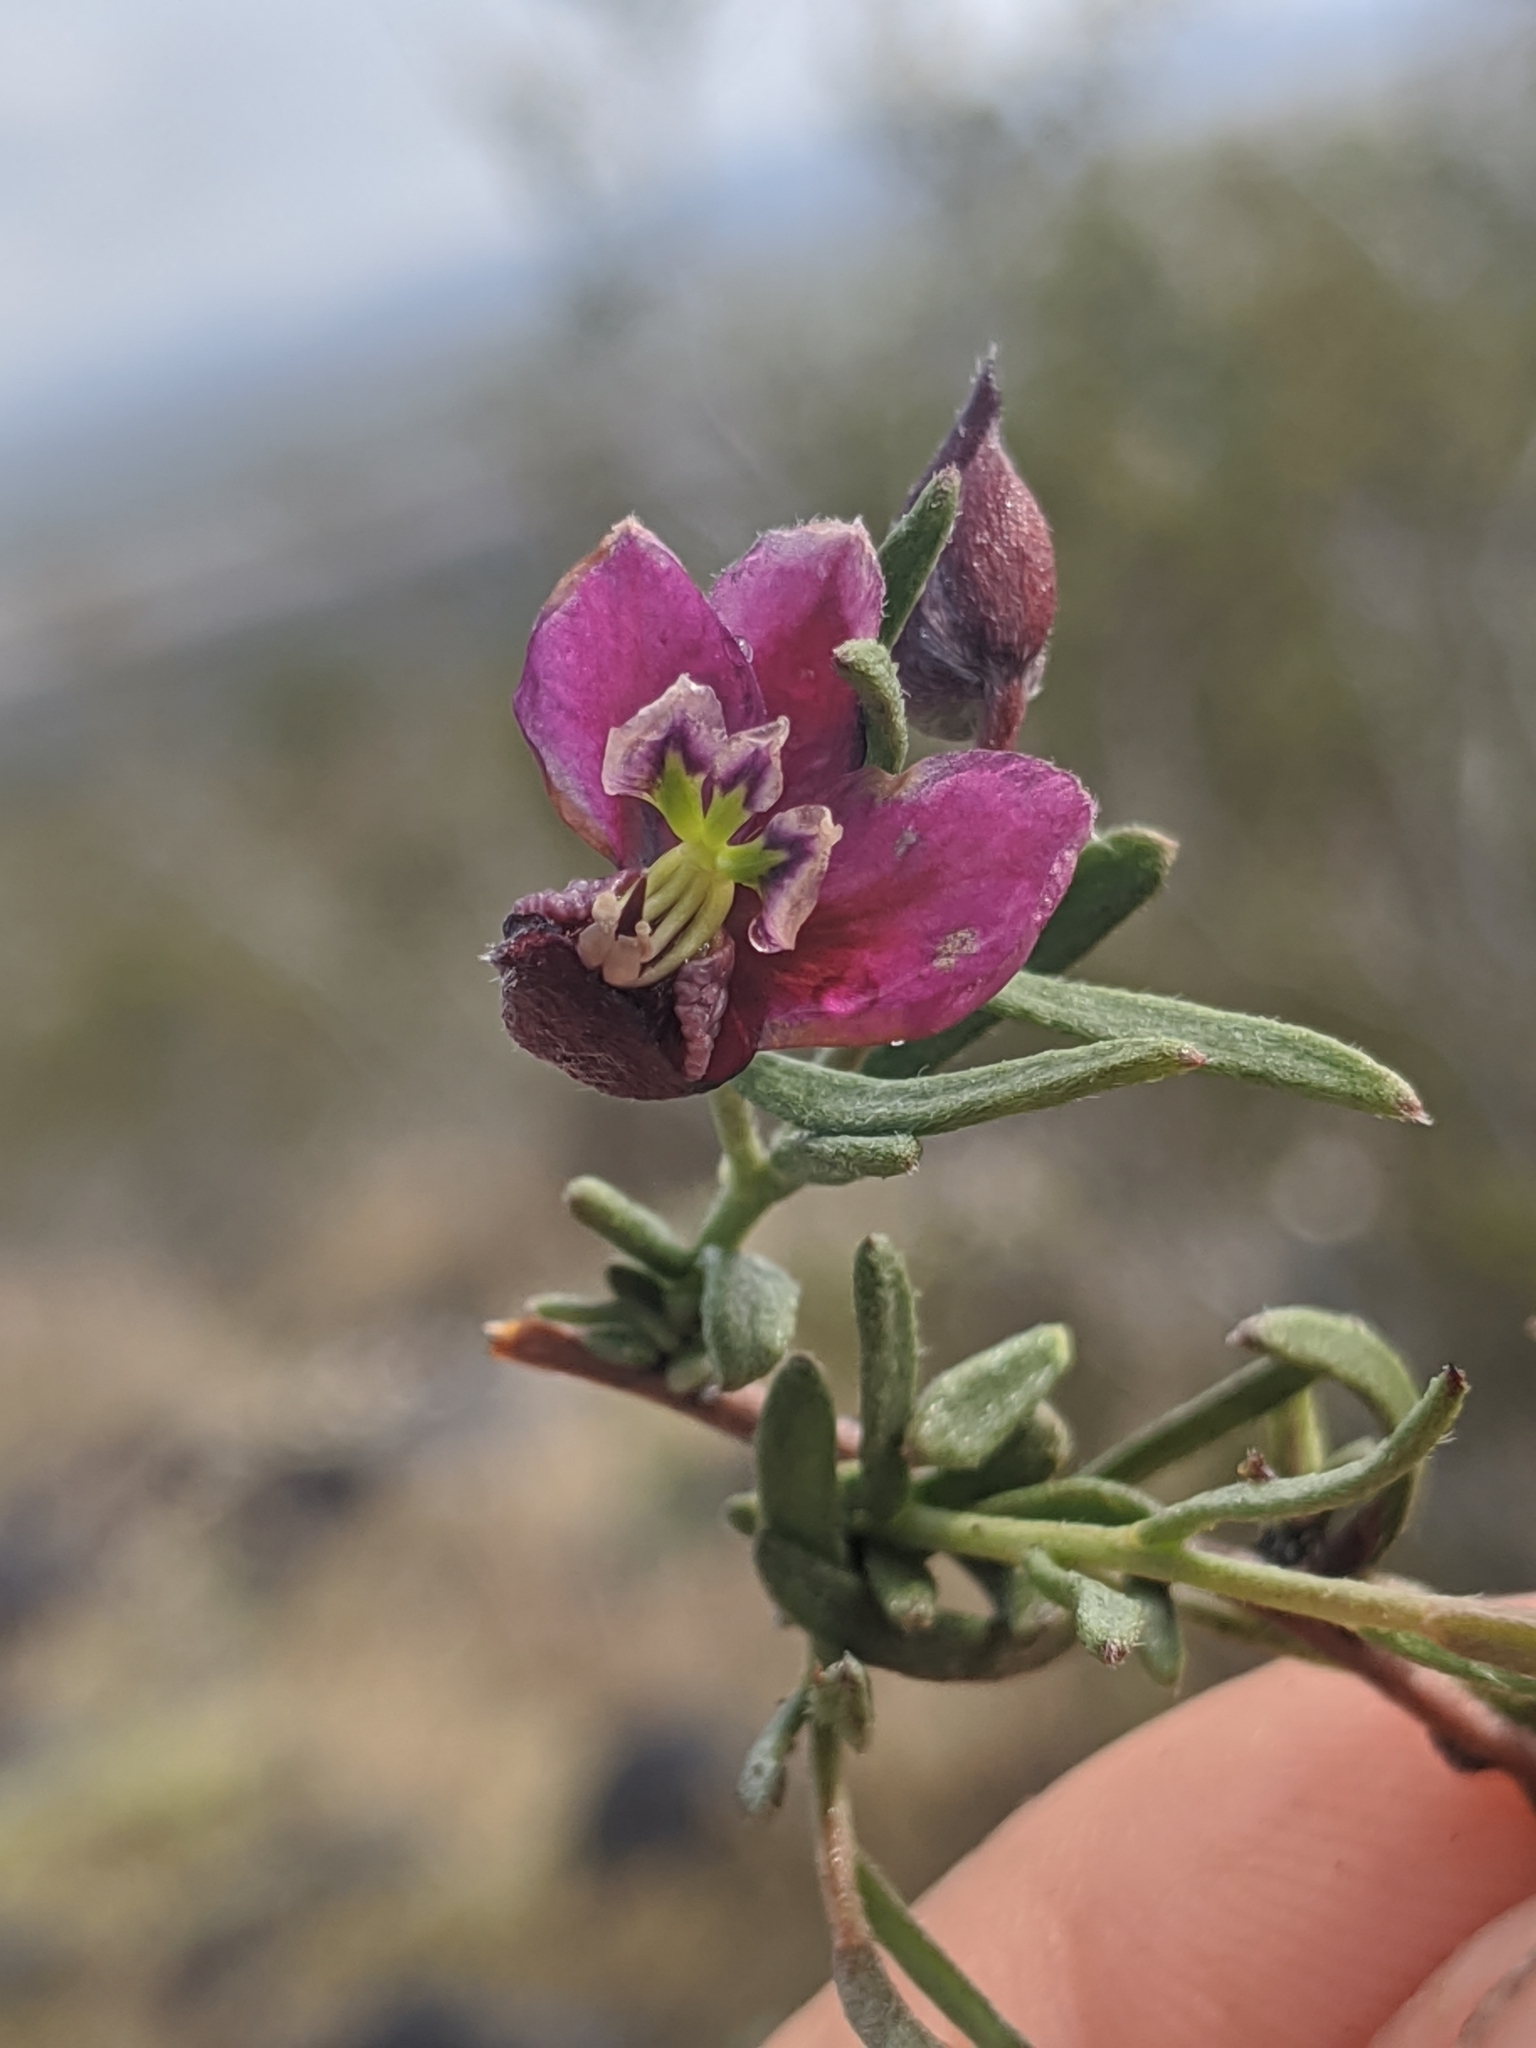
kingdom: Plantae
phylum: Tracheophyta
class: Magnoliopsida
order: Zygophyllales
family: Krameriaceae
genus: Krameria
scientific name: Krameria erecta
